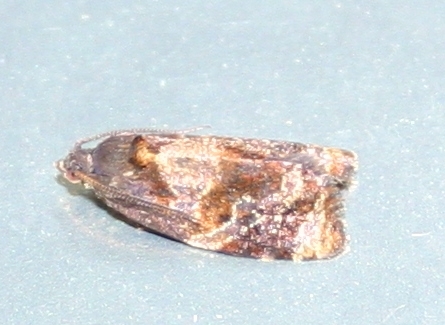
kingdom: Animalia
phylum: Arthropoda
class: Insecta
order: Lepidoptera
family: Tortricidae
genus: Ditula
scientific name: Ditula angustiorana
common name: Red-barred tortrix
